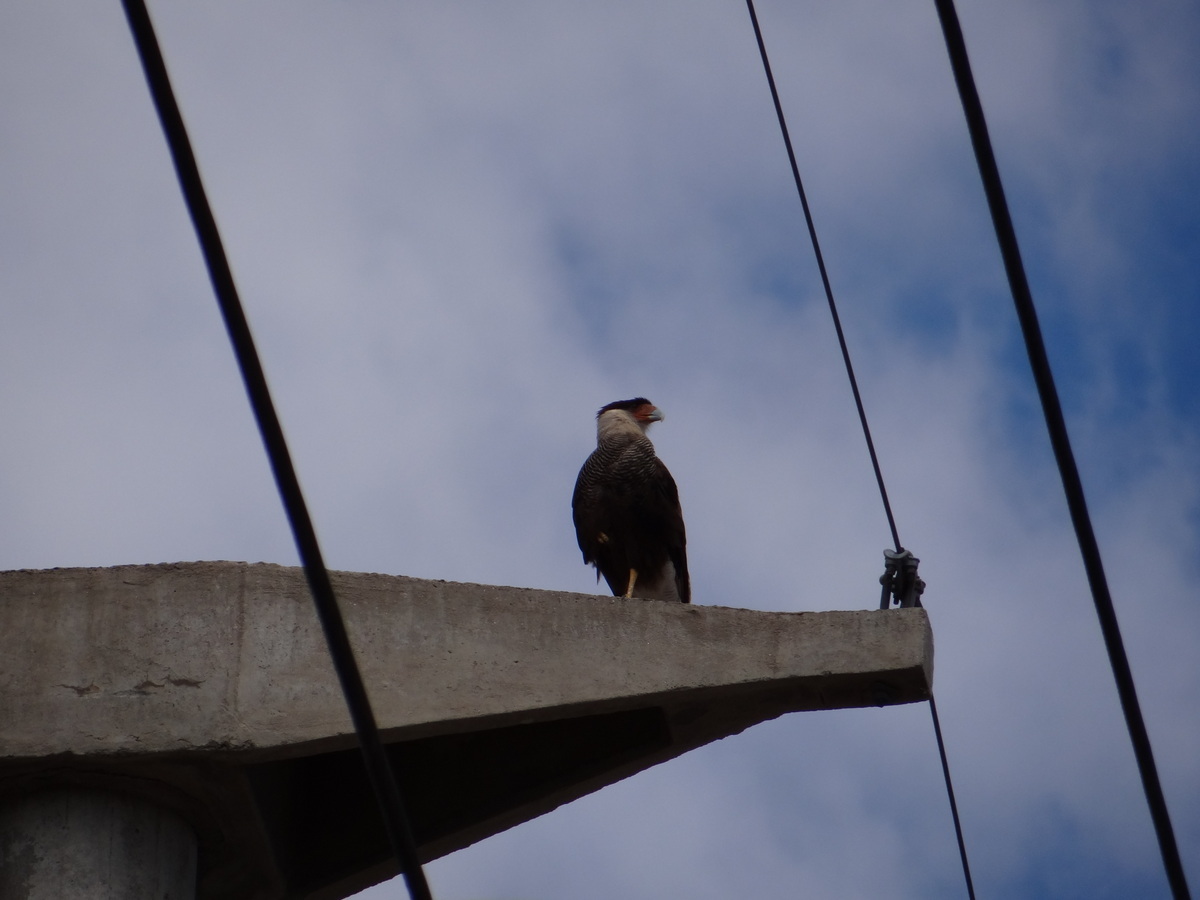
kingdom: Animalia
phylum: Chordata
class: Aves
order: Falconiformes
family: Falconidae
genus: Caracara
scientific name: Caracara plancus
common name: Southern caracara
